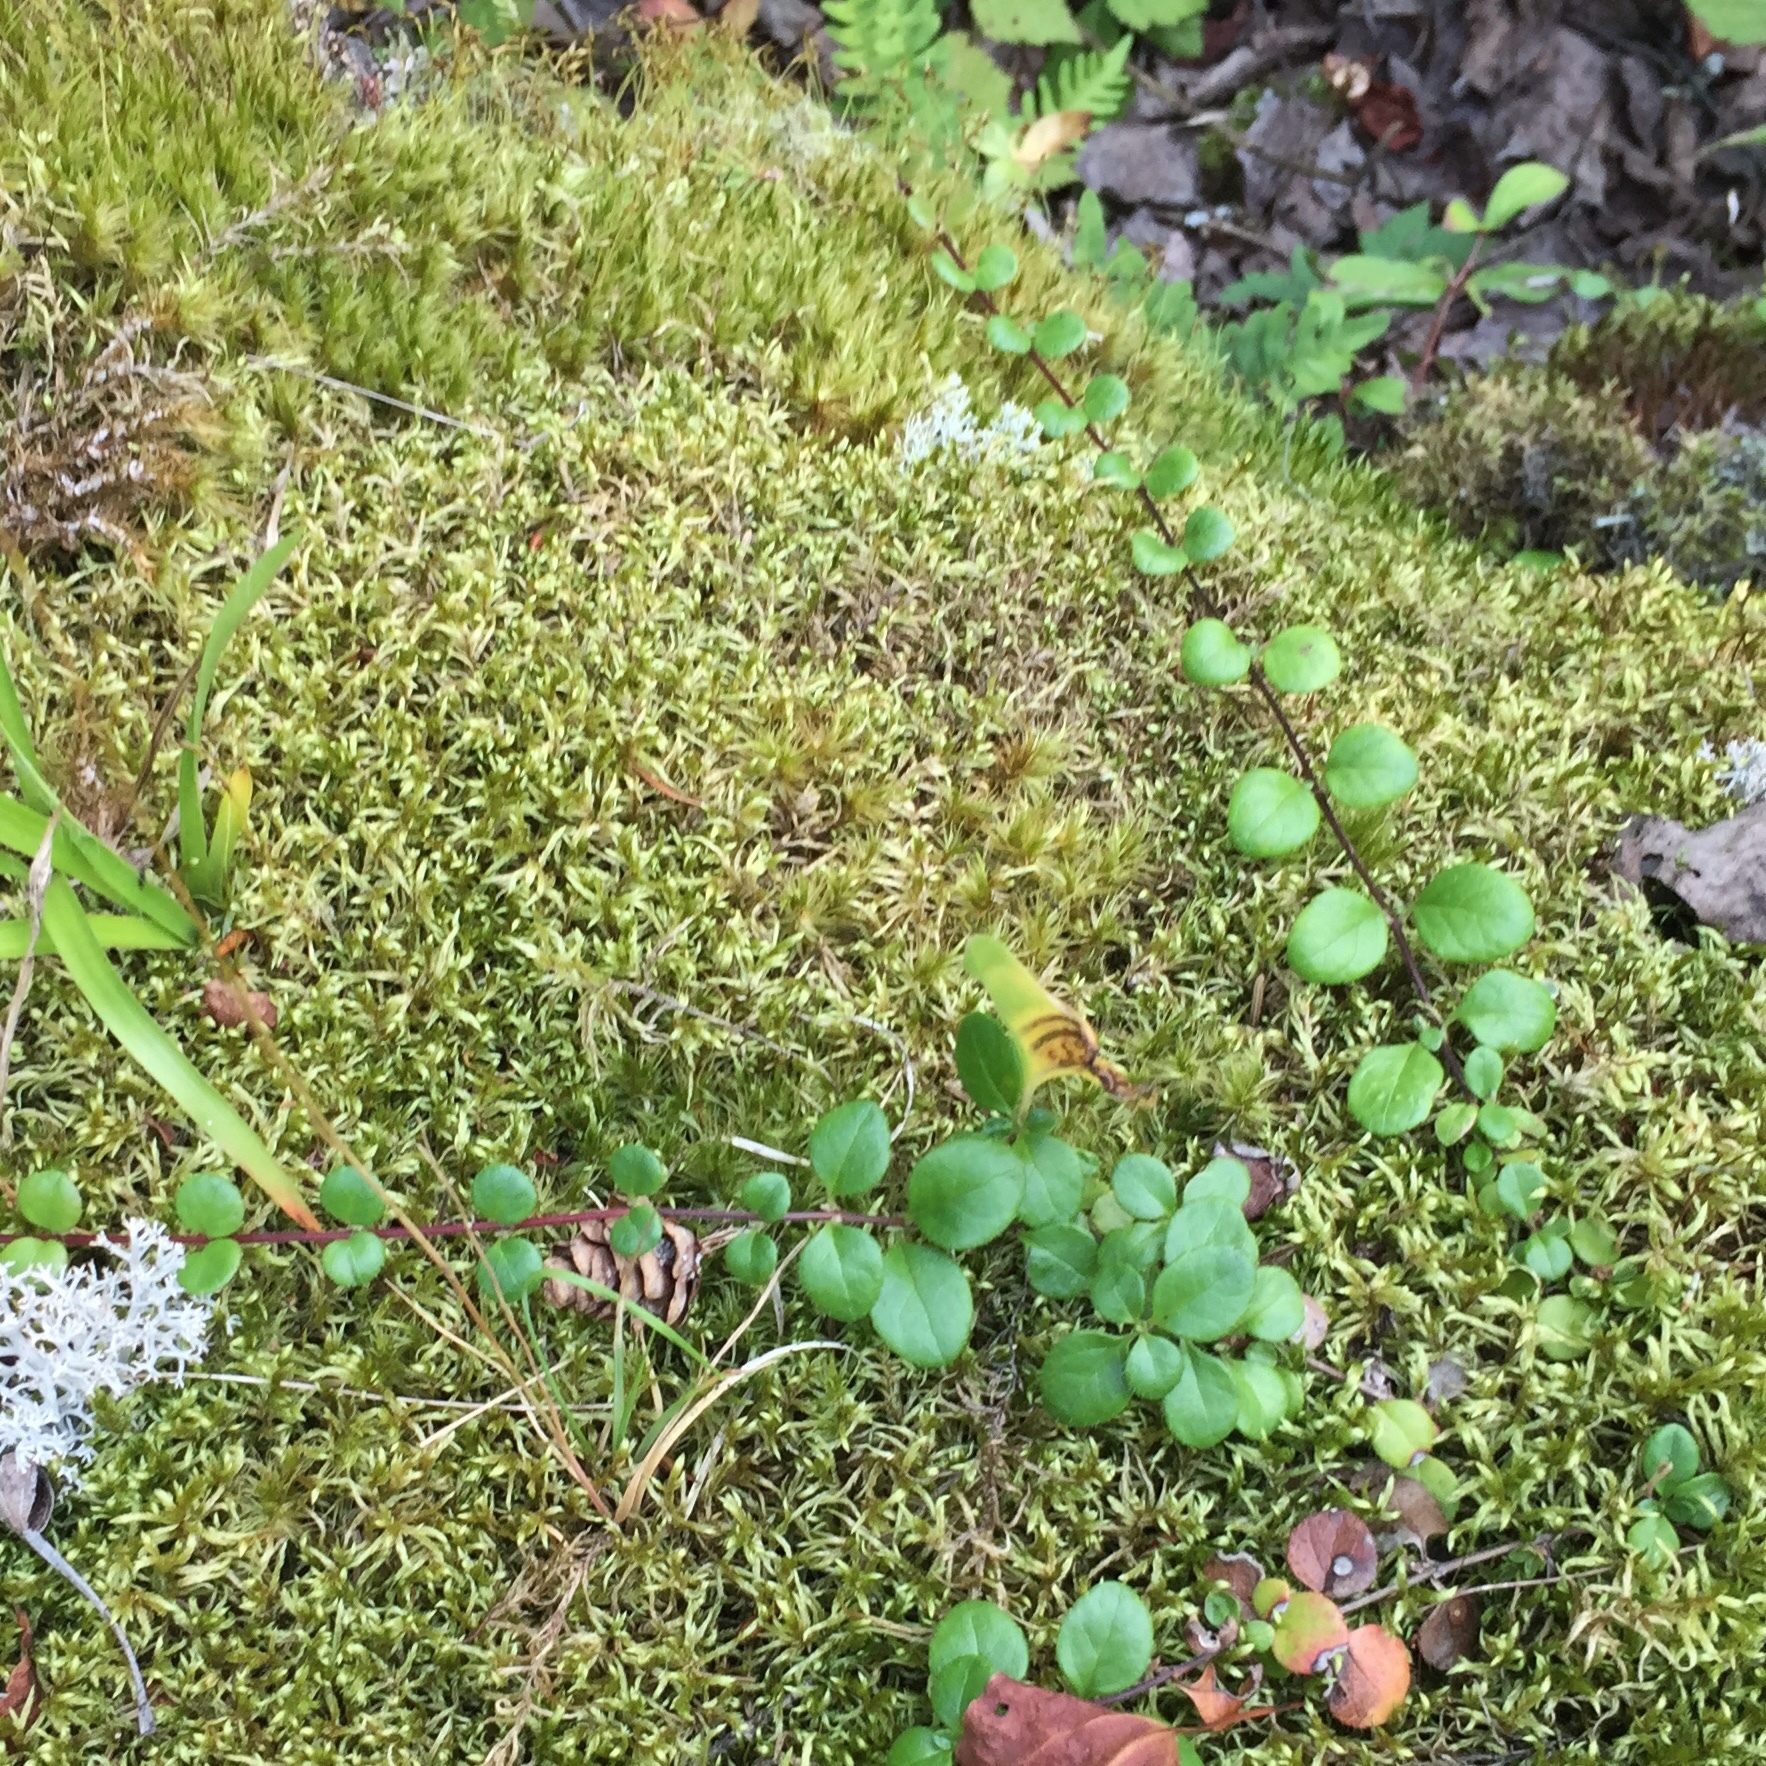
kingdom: Plantae
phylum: Tracheophyta
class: Magnoliopsida
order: Ericales
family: Ericaceae
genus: Gaultheria
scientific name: Gaultheria hispidula
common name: Cancer wintergreen
